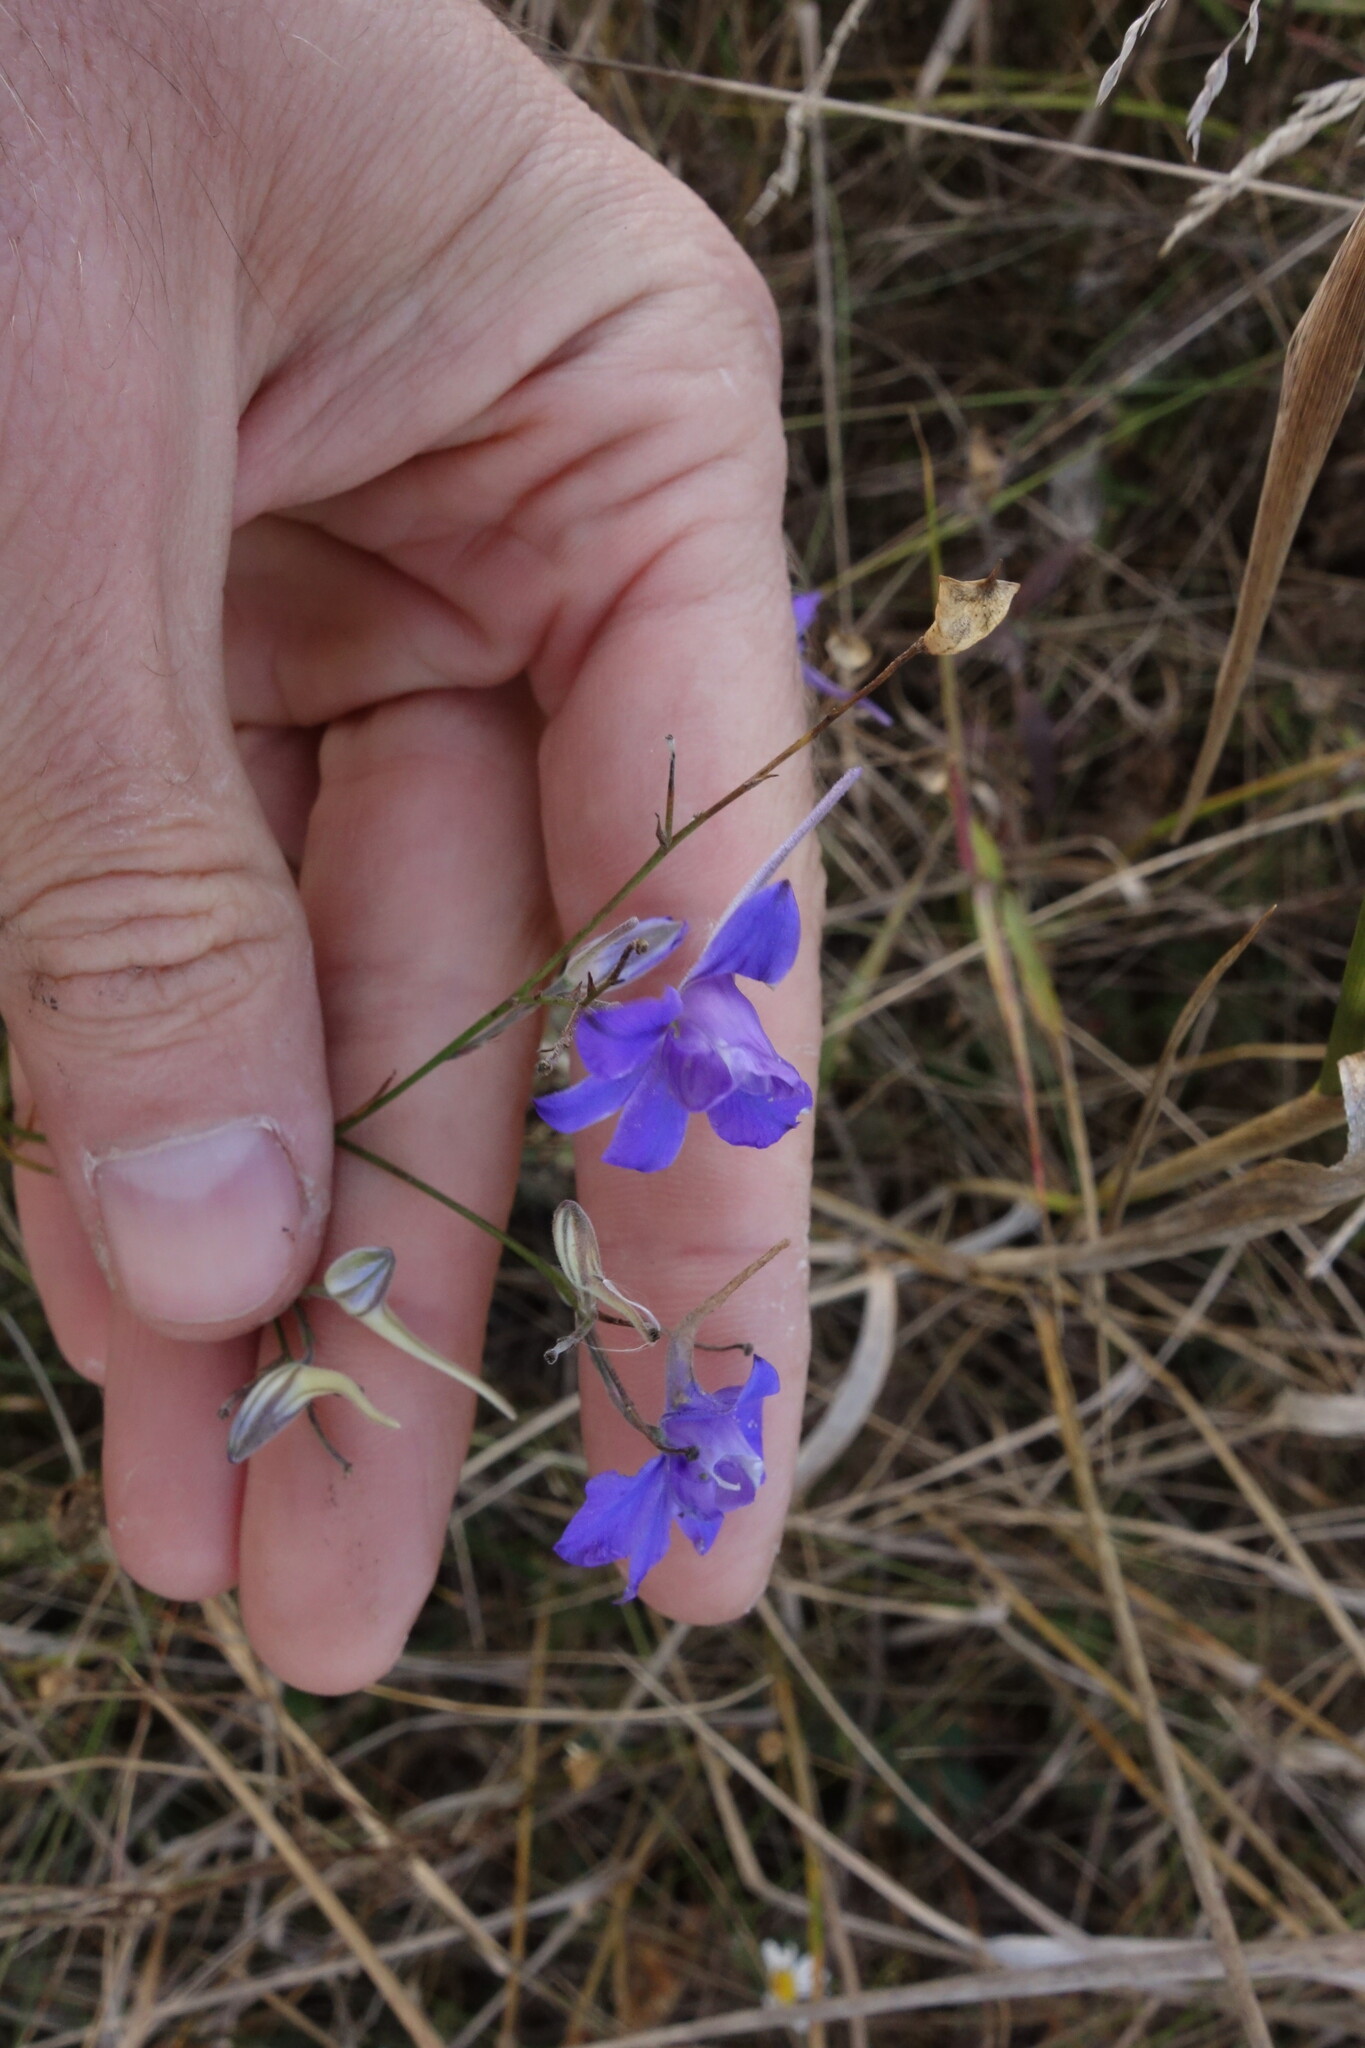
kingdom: Plantae
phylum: Tracheophyta
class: Magnoliopsida
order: Ranunculales
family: Ranunculaceae
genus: Delphinium
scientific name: Delphinium consolida
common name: Branching larkspur
